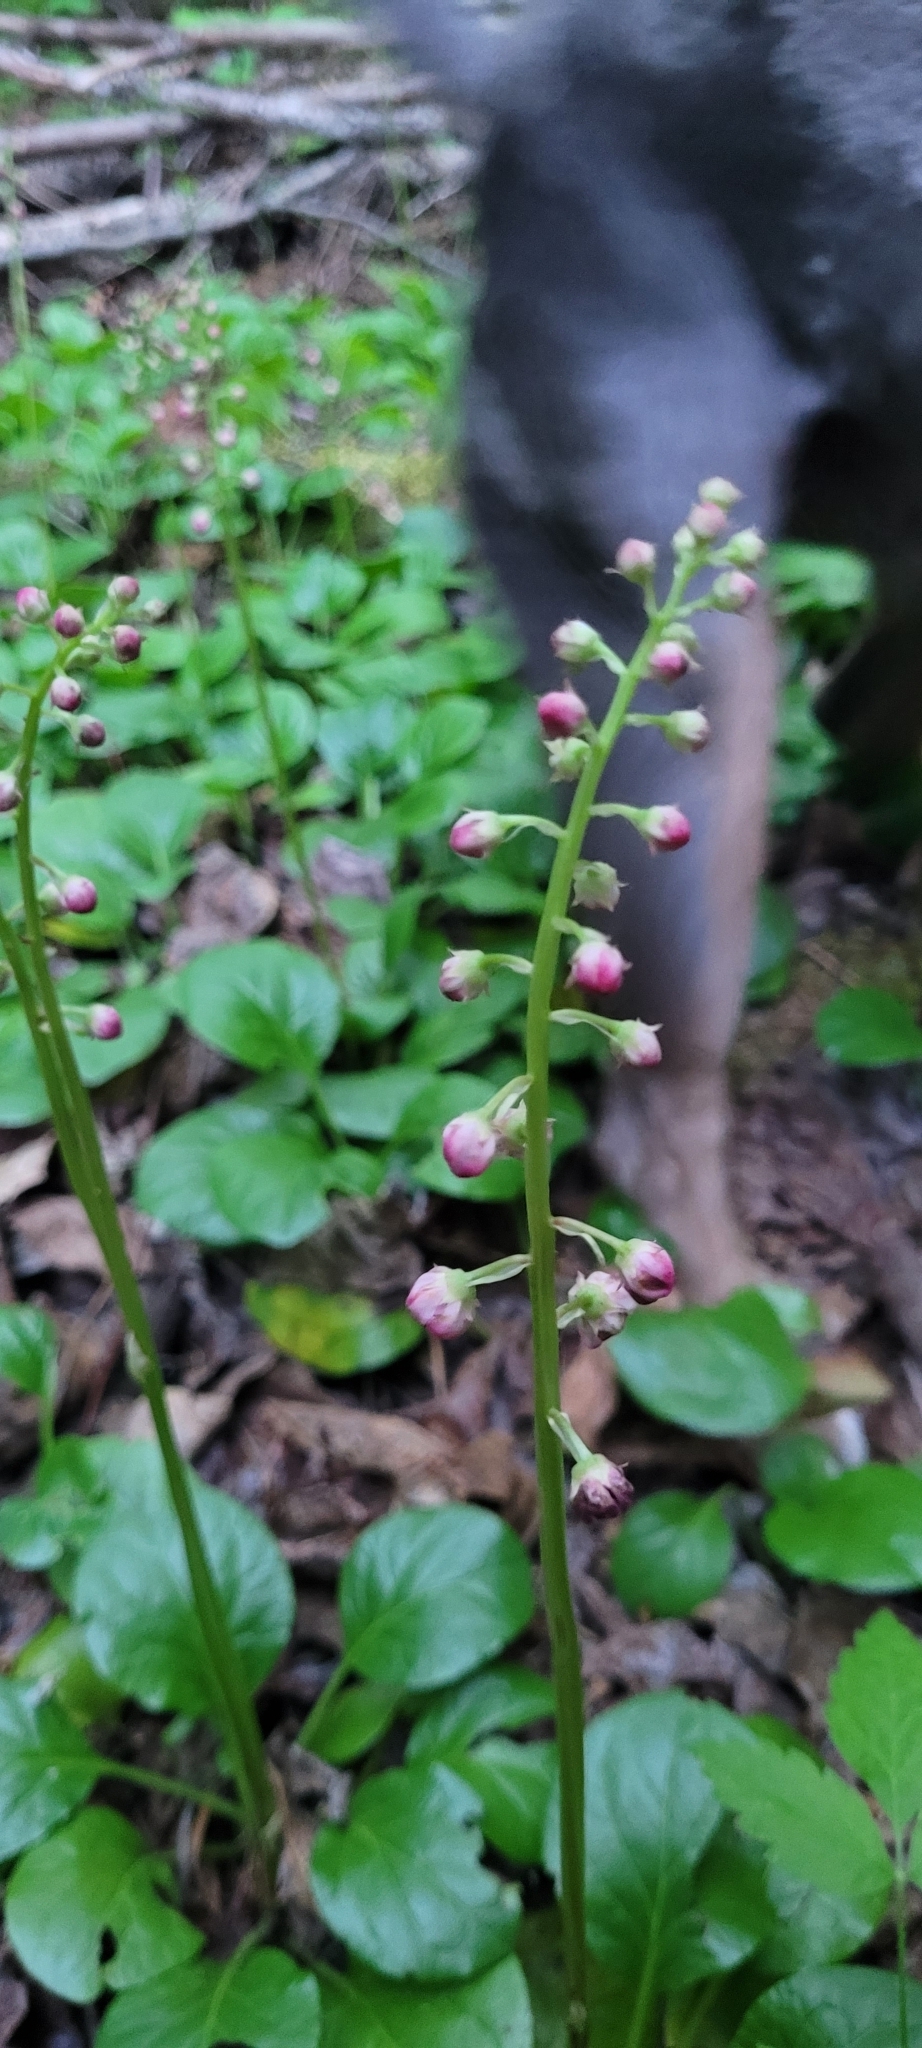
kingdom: Plantae
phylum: Tracheophyta
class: Magnoliopsida
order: Ericales
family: Ericaceae
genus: Pyrola
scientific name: Pyrola asarifolia
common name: Bog wintergreen
